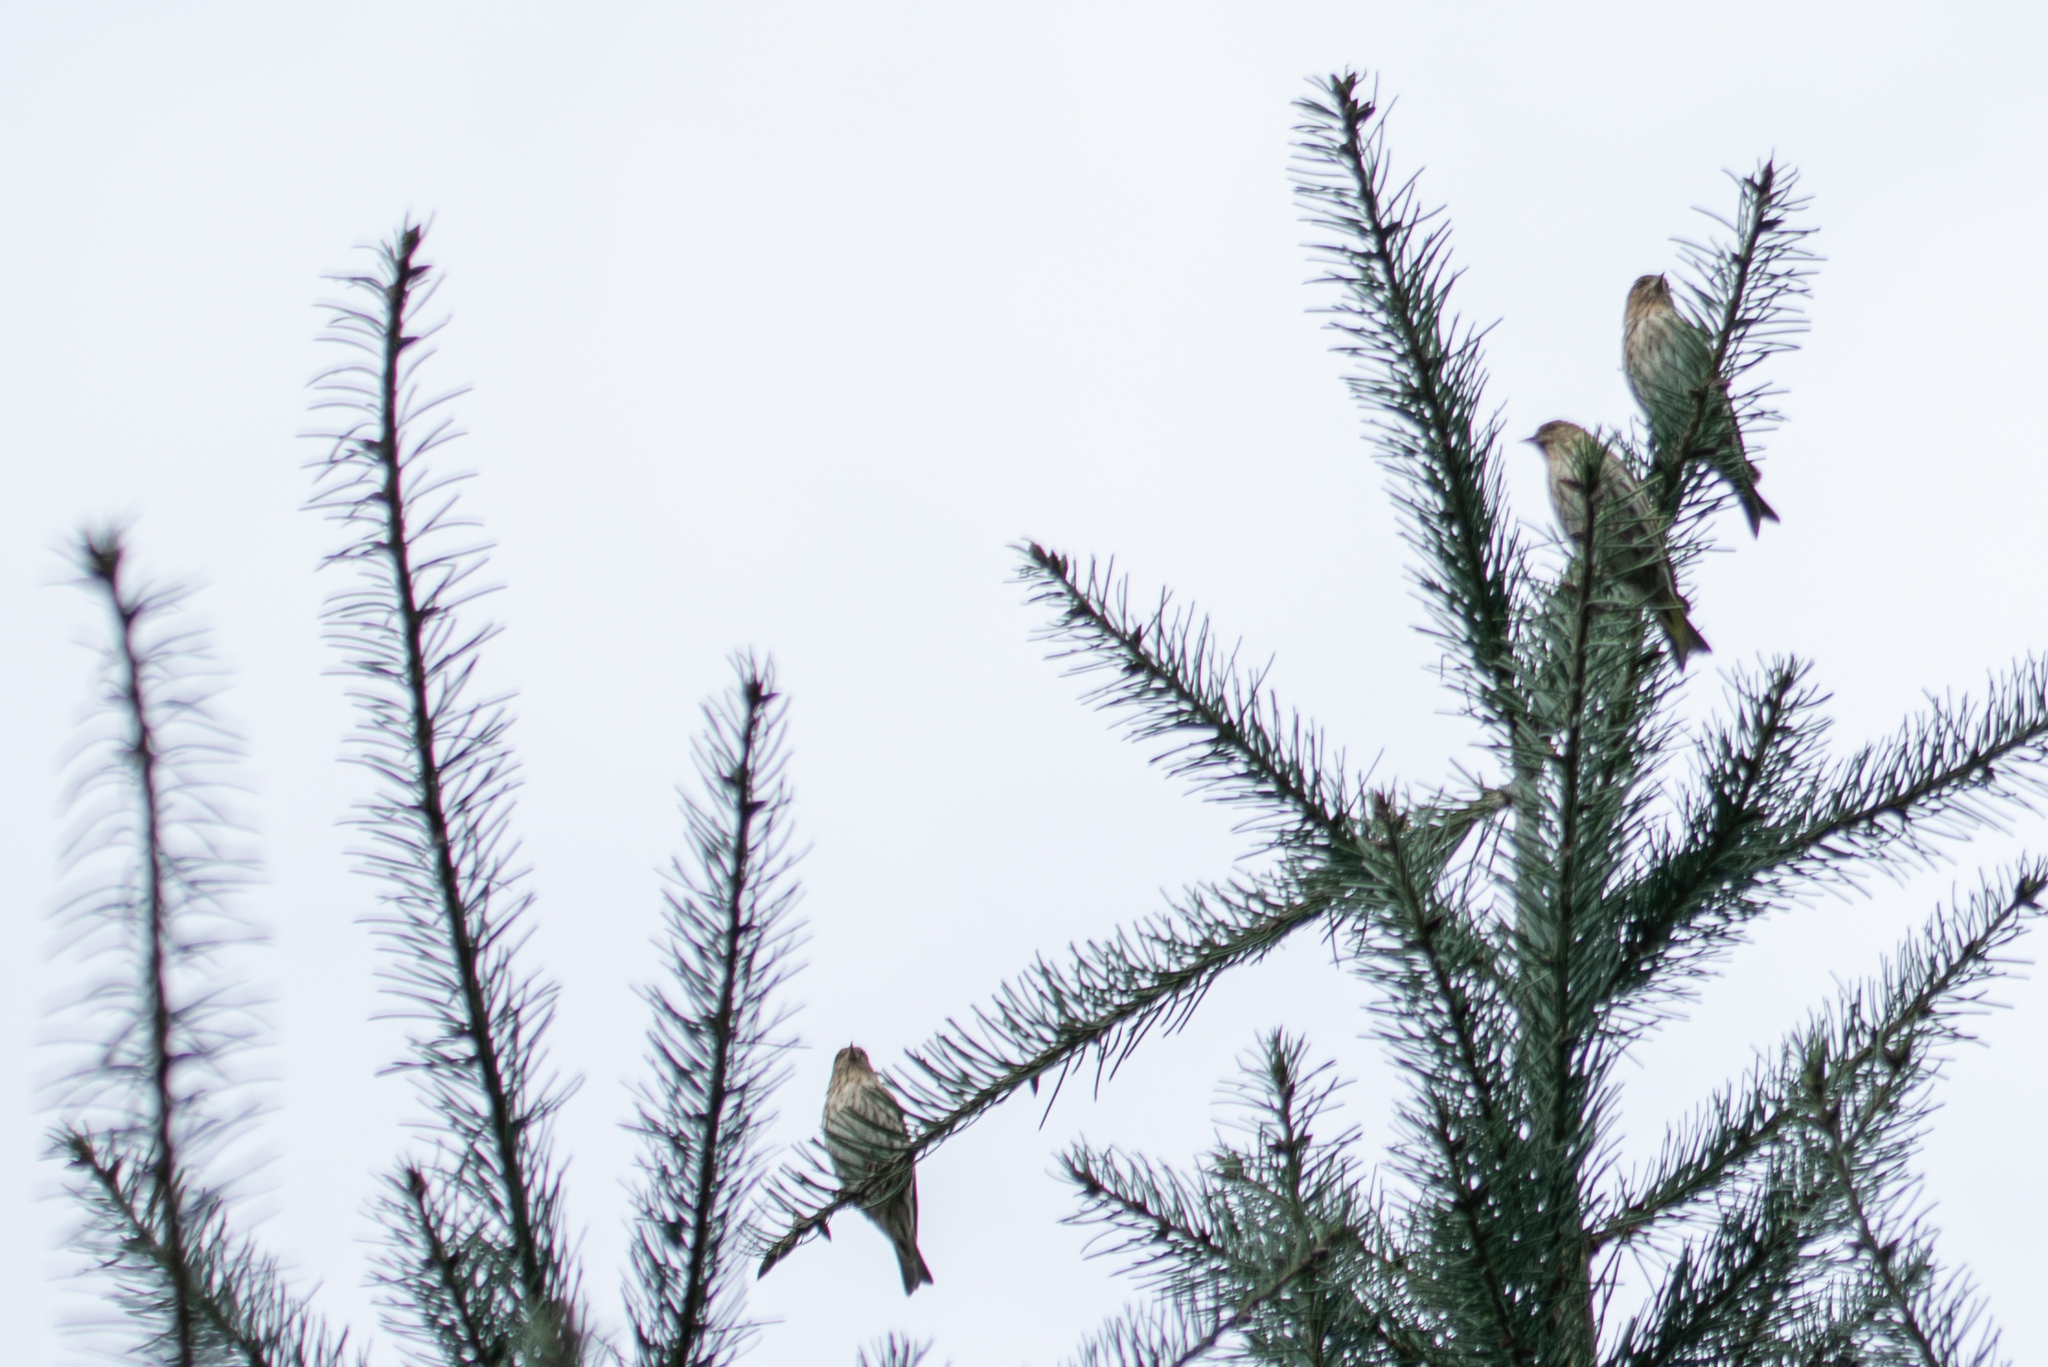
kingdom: Animalia
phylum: Chordata
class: Aves
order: Passeriformes
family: Fringillidae
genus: Spinus
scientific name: Spinus pinus
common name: Pine siskin
